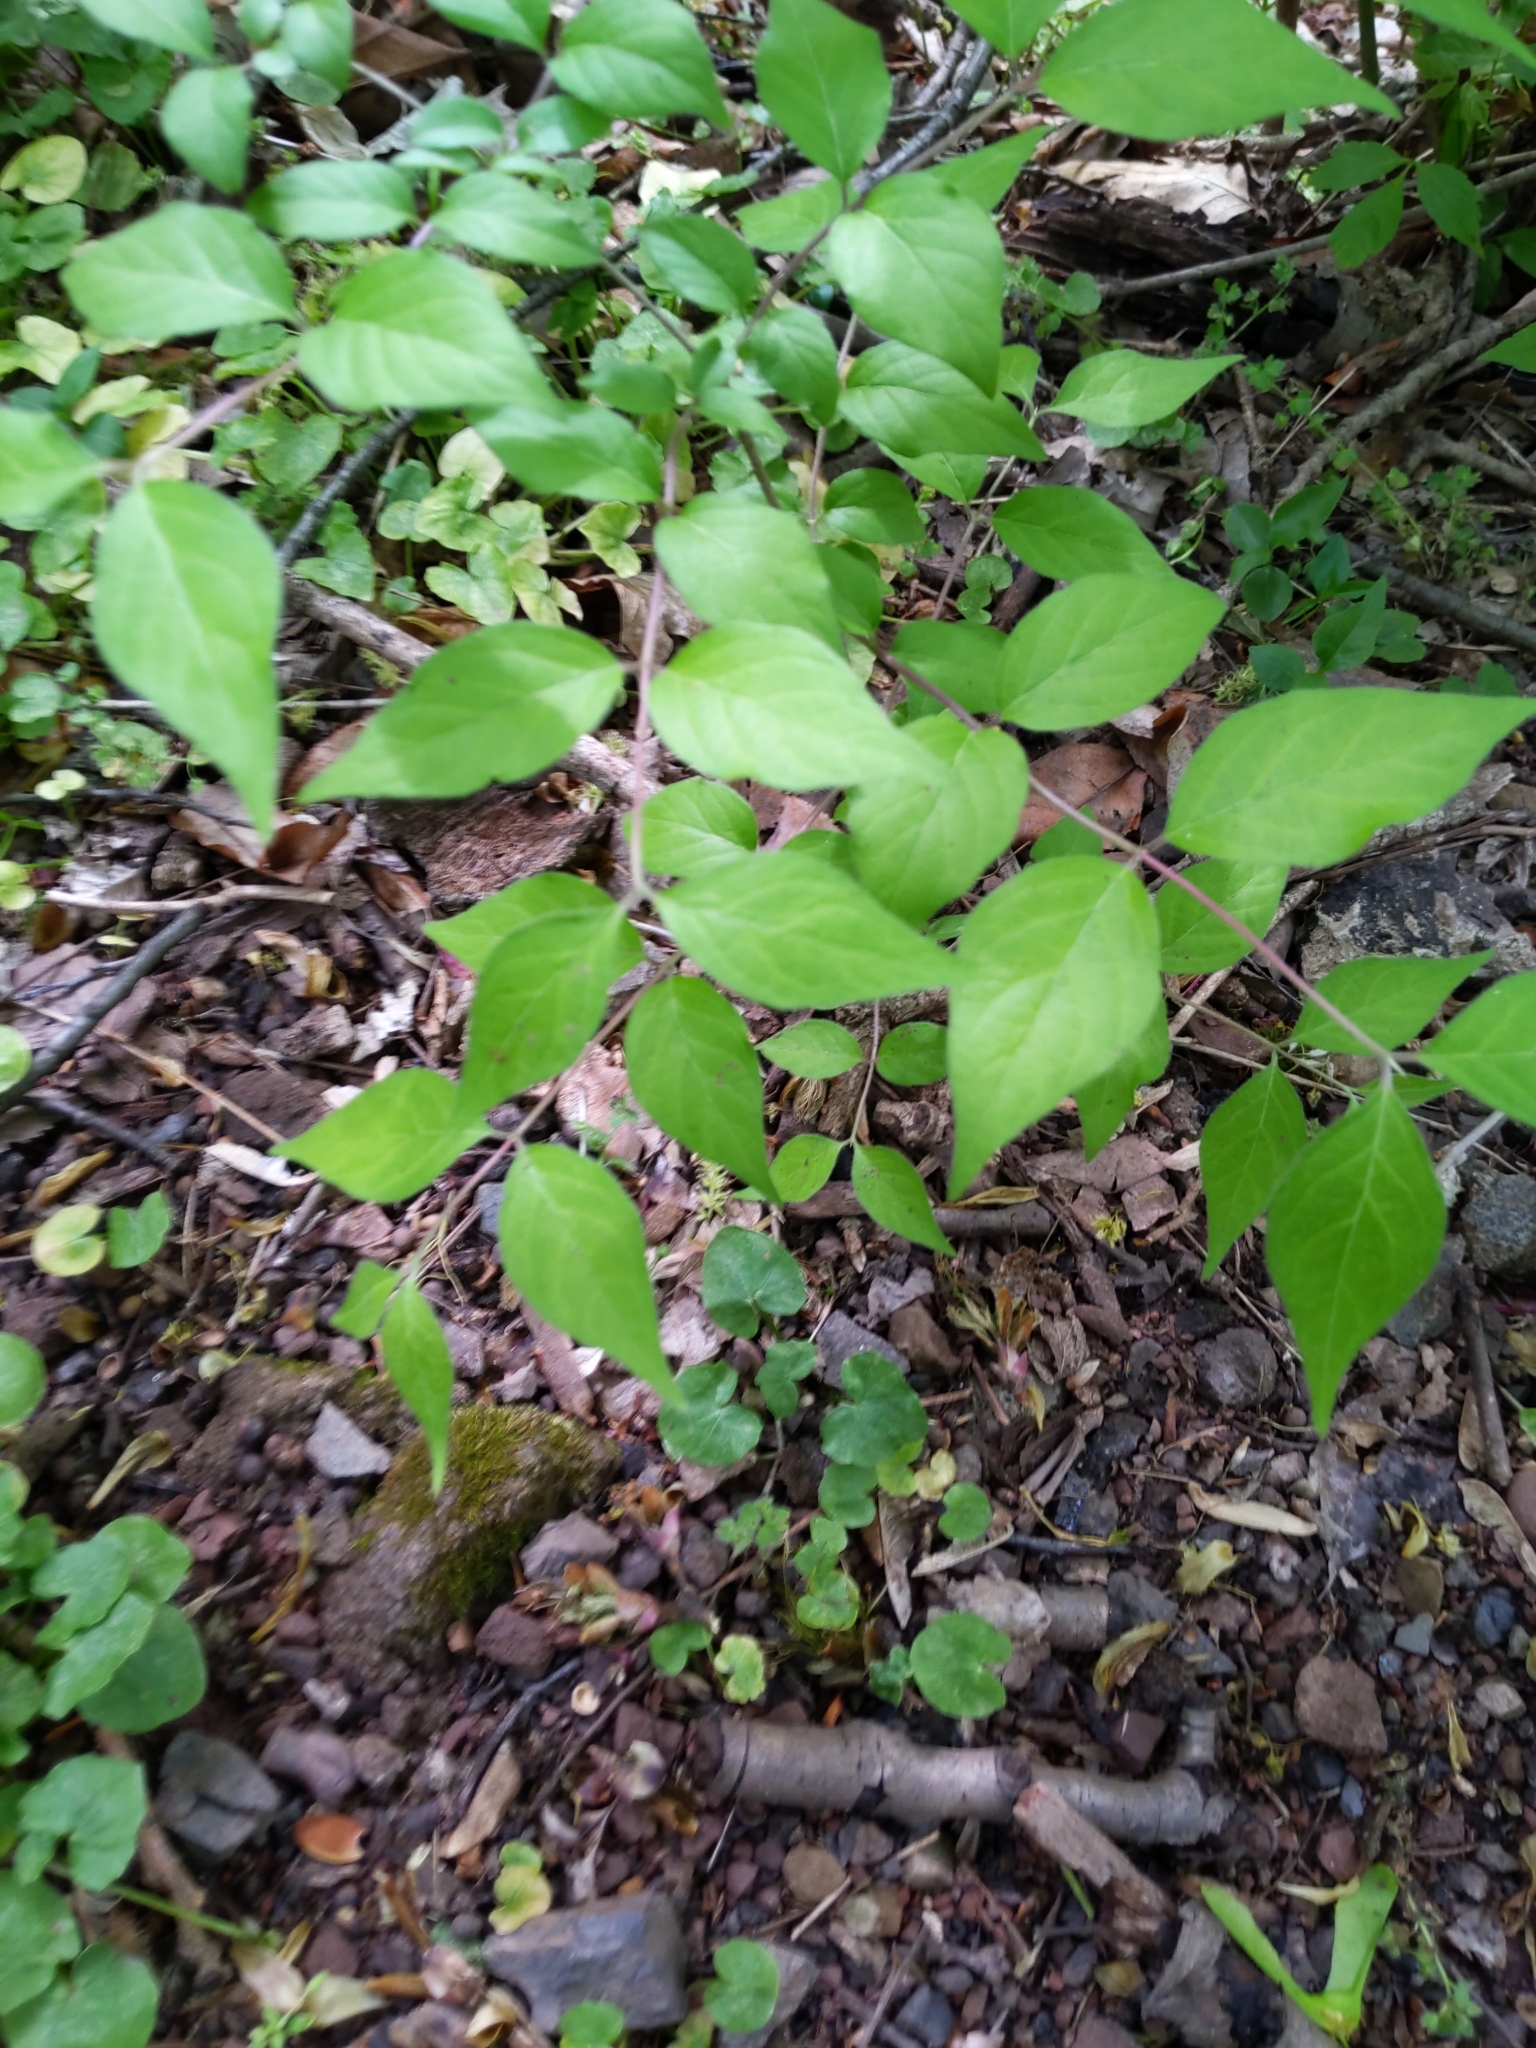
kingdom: Plantae
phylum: Tracheophyta
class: Magnoliopsida
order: Dipsacales
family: Caprifoliaceae
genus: Lonicera
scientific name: Lonicera maackii
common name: Amur honeysuckle
